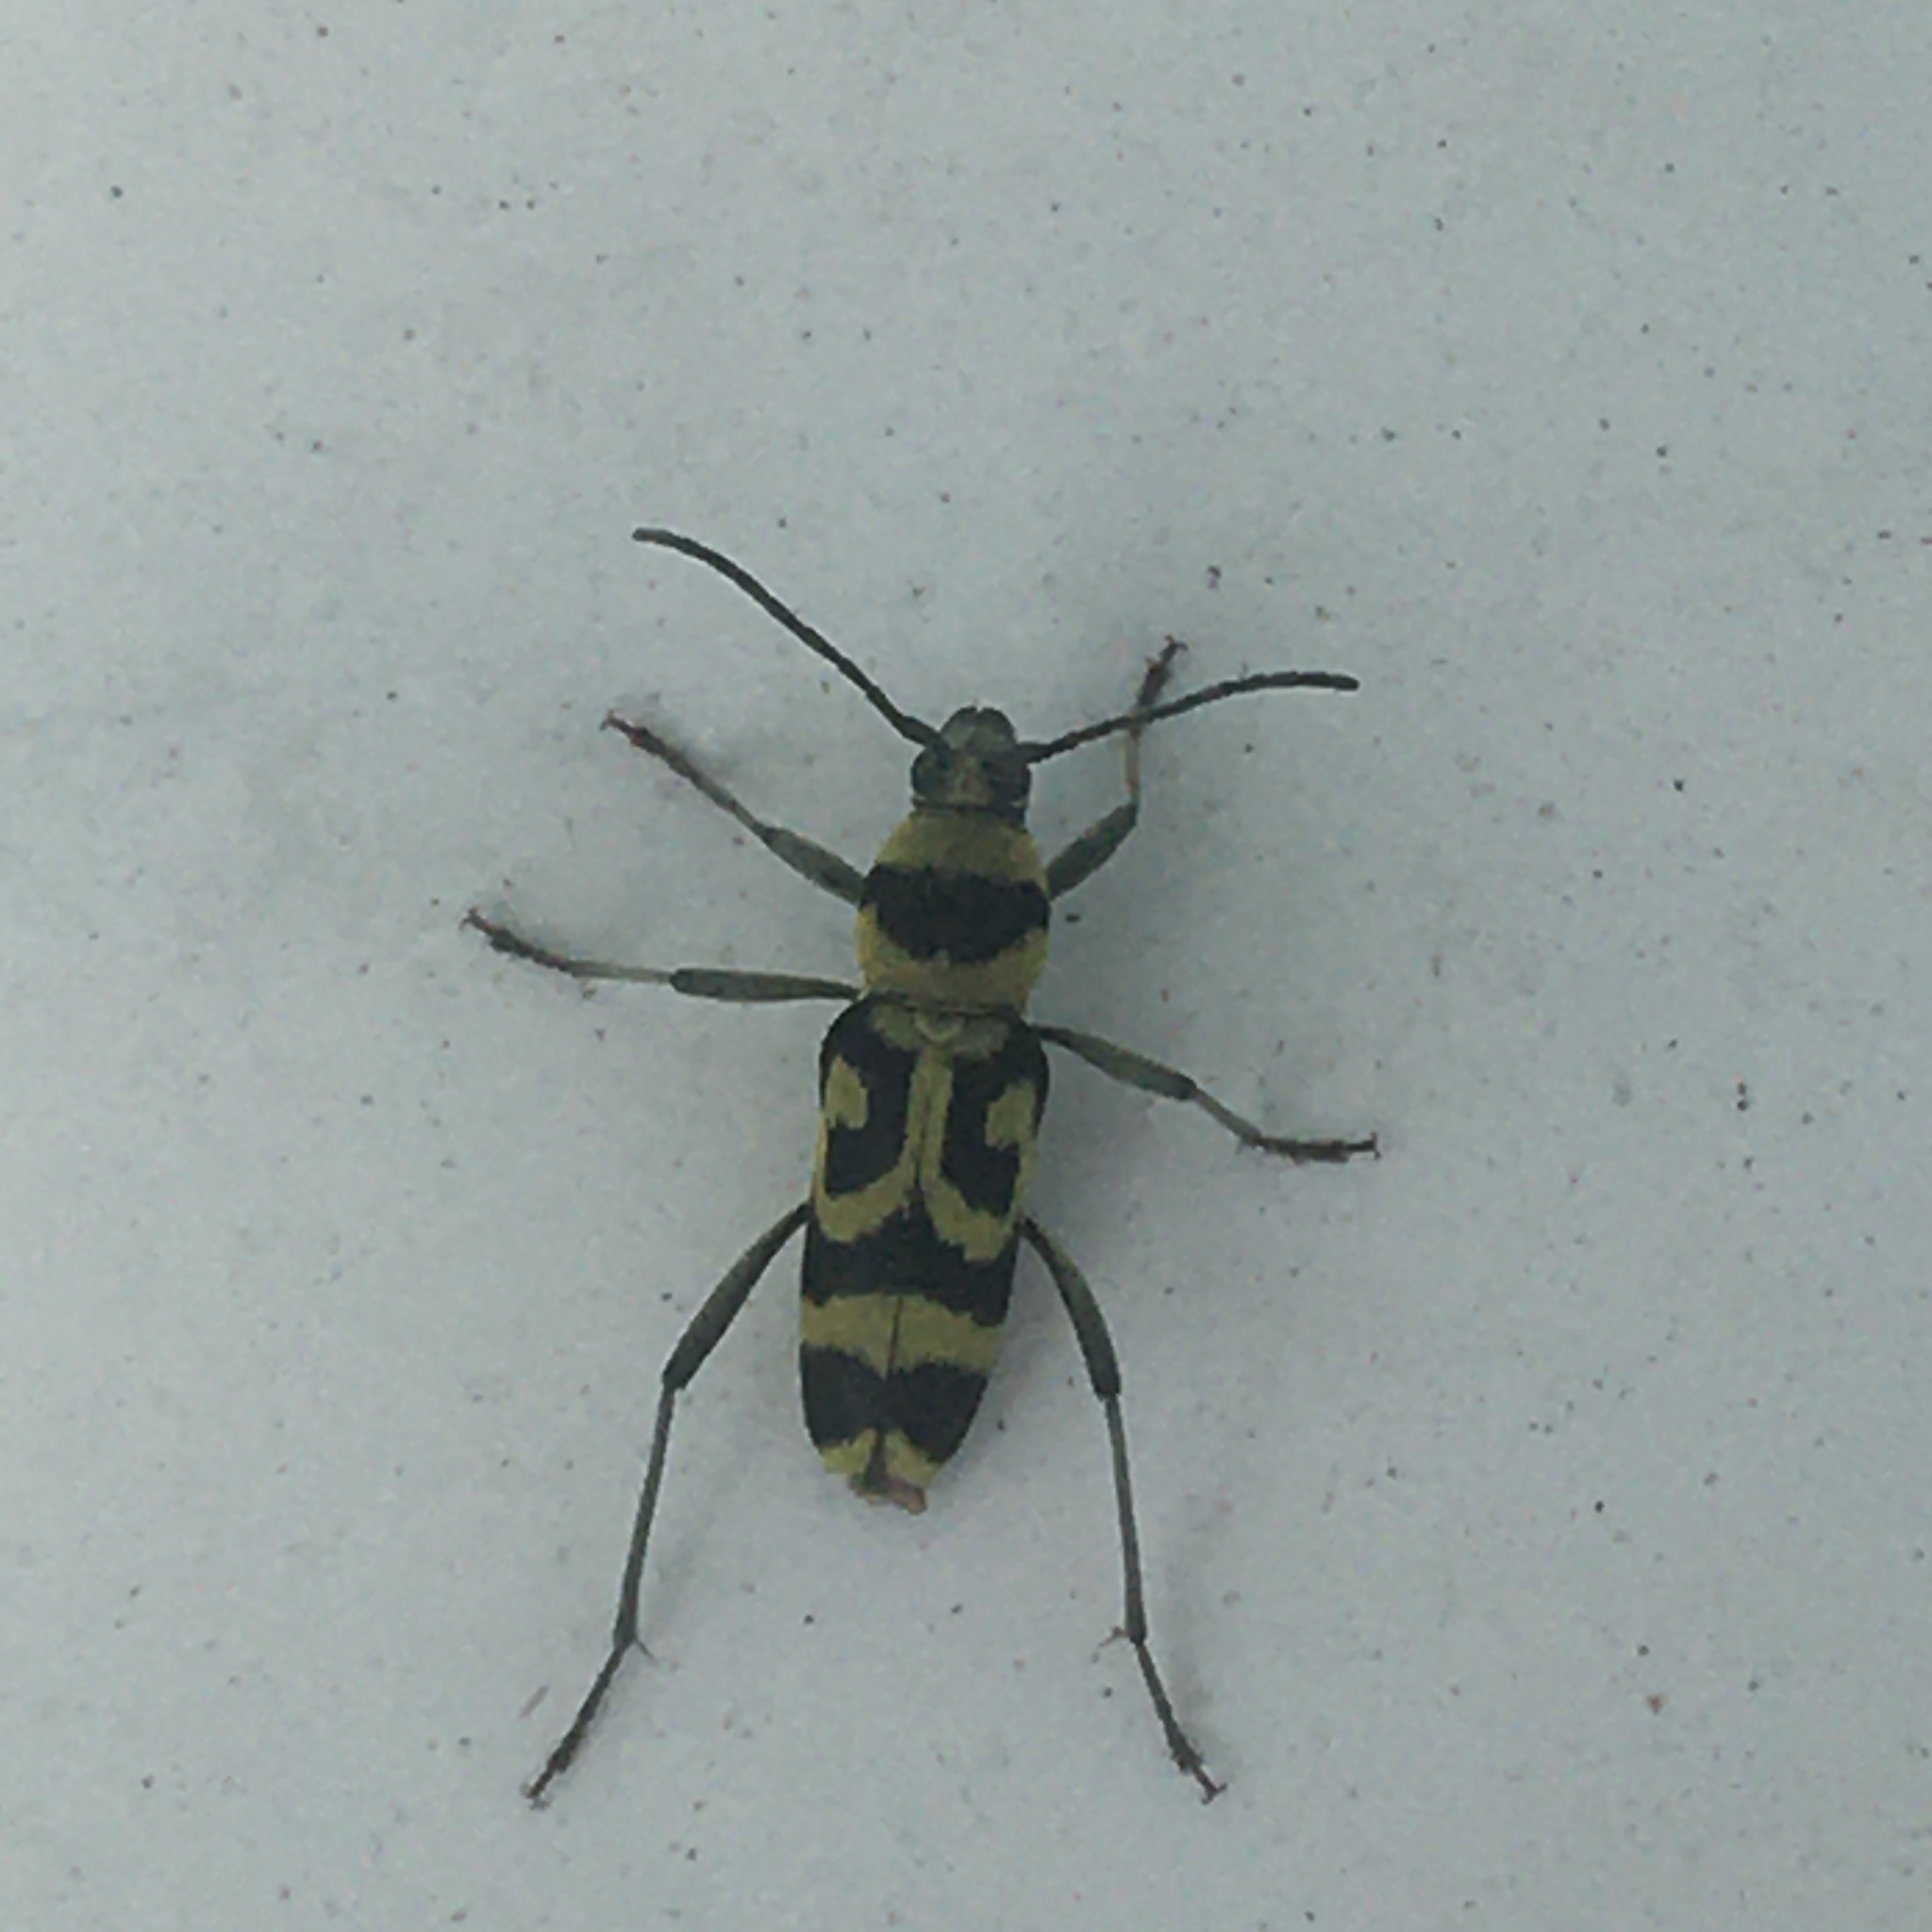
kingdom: Animalia
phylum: Arthropoda
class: Insecta
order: Coleoptera
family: Cerambycidae
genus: Chlorophorus
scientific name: Chlorophorus varius
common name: Grape wood borer
